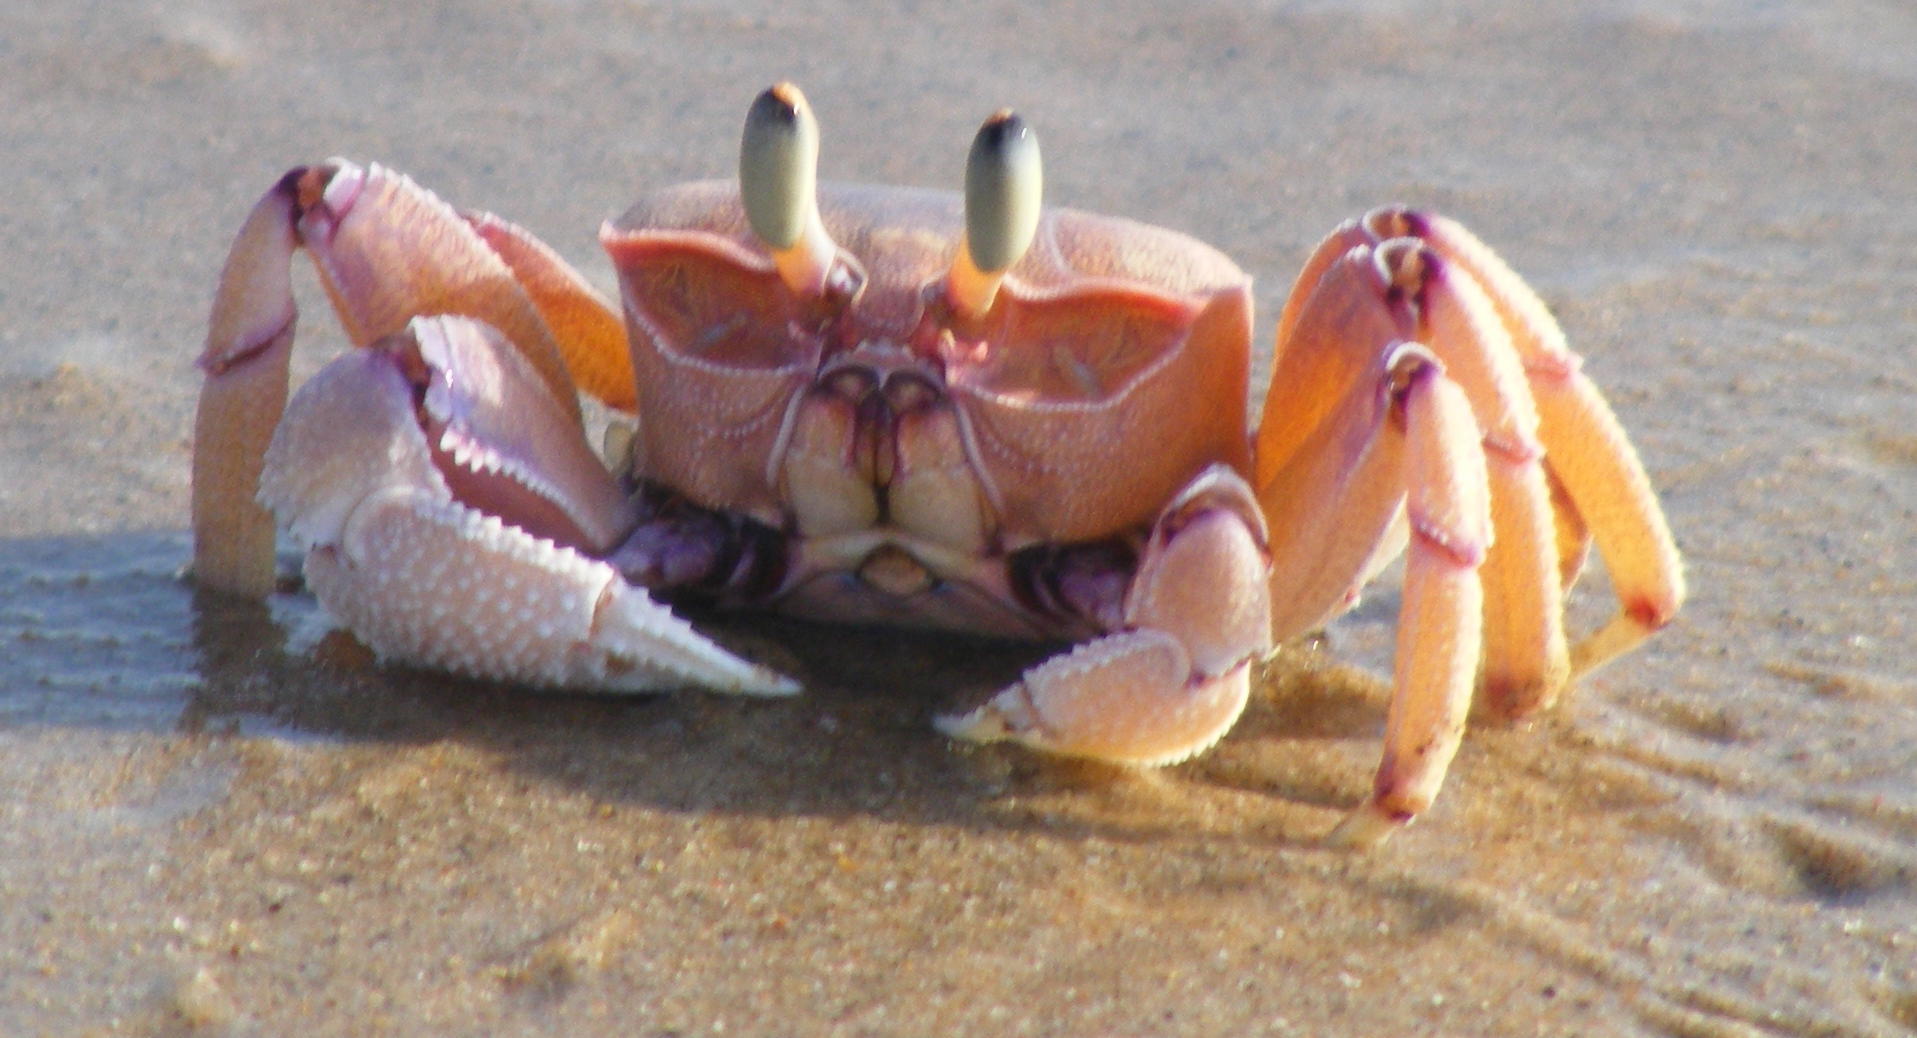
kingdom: Animalia
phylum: Arthropoda
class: Malacostraca
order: Decapoda
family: Ocypodidae
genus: Ocypode
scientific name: Ocypode ryderi
